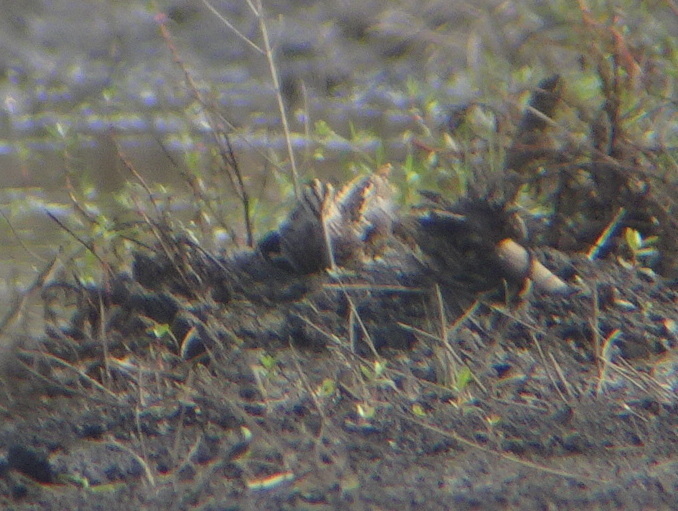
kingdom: Animalia
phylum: Chordata
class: Aves
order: Charadriiformes
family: Scolopacidae
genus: Gallinago
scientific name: Gallinago delicata
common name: Wilson's snipe
